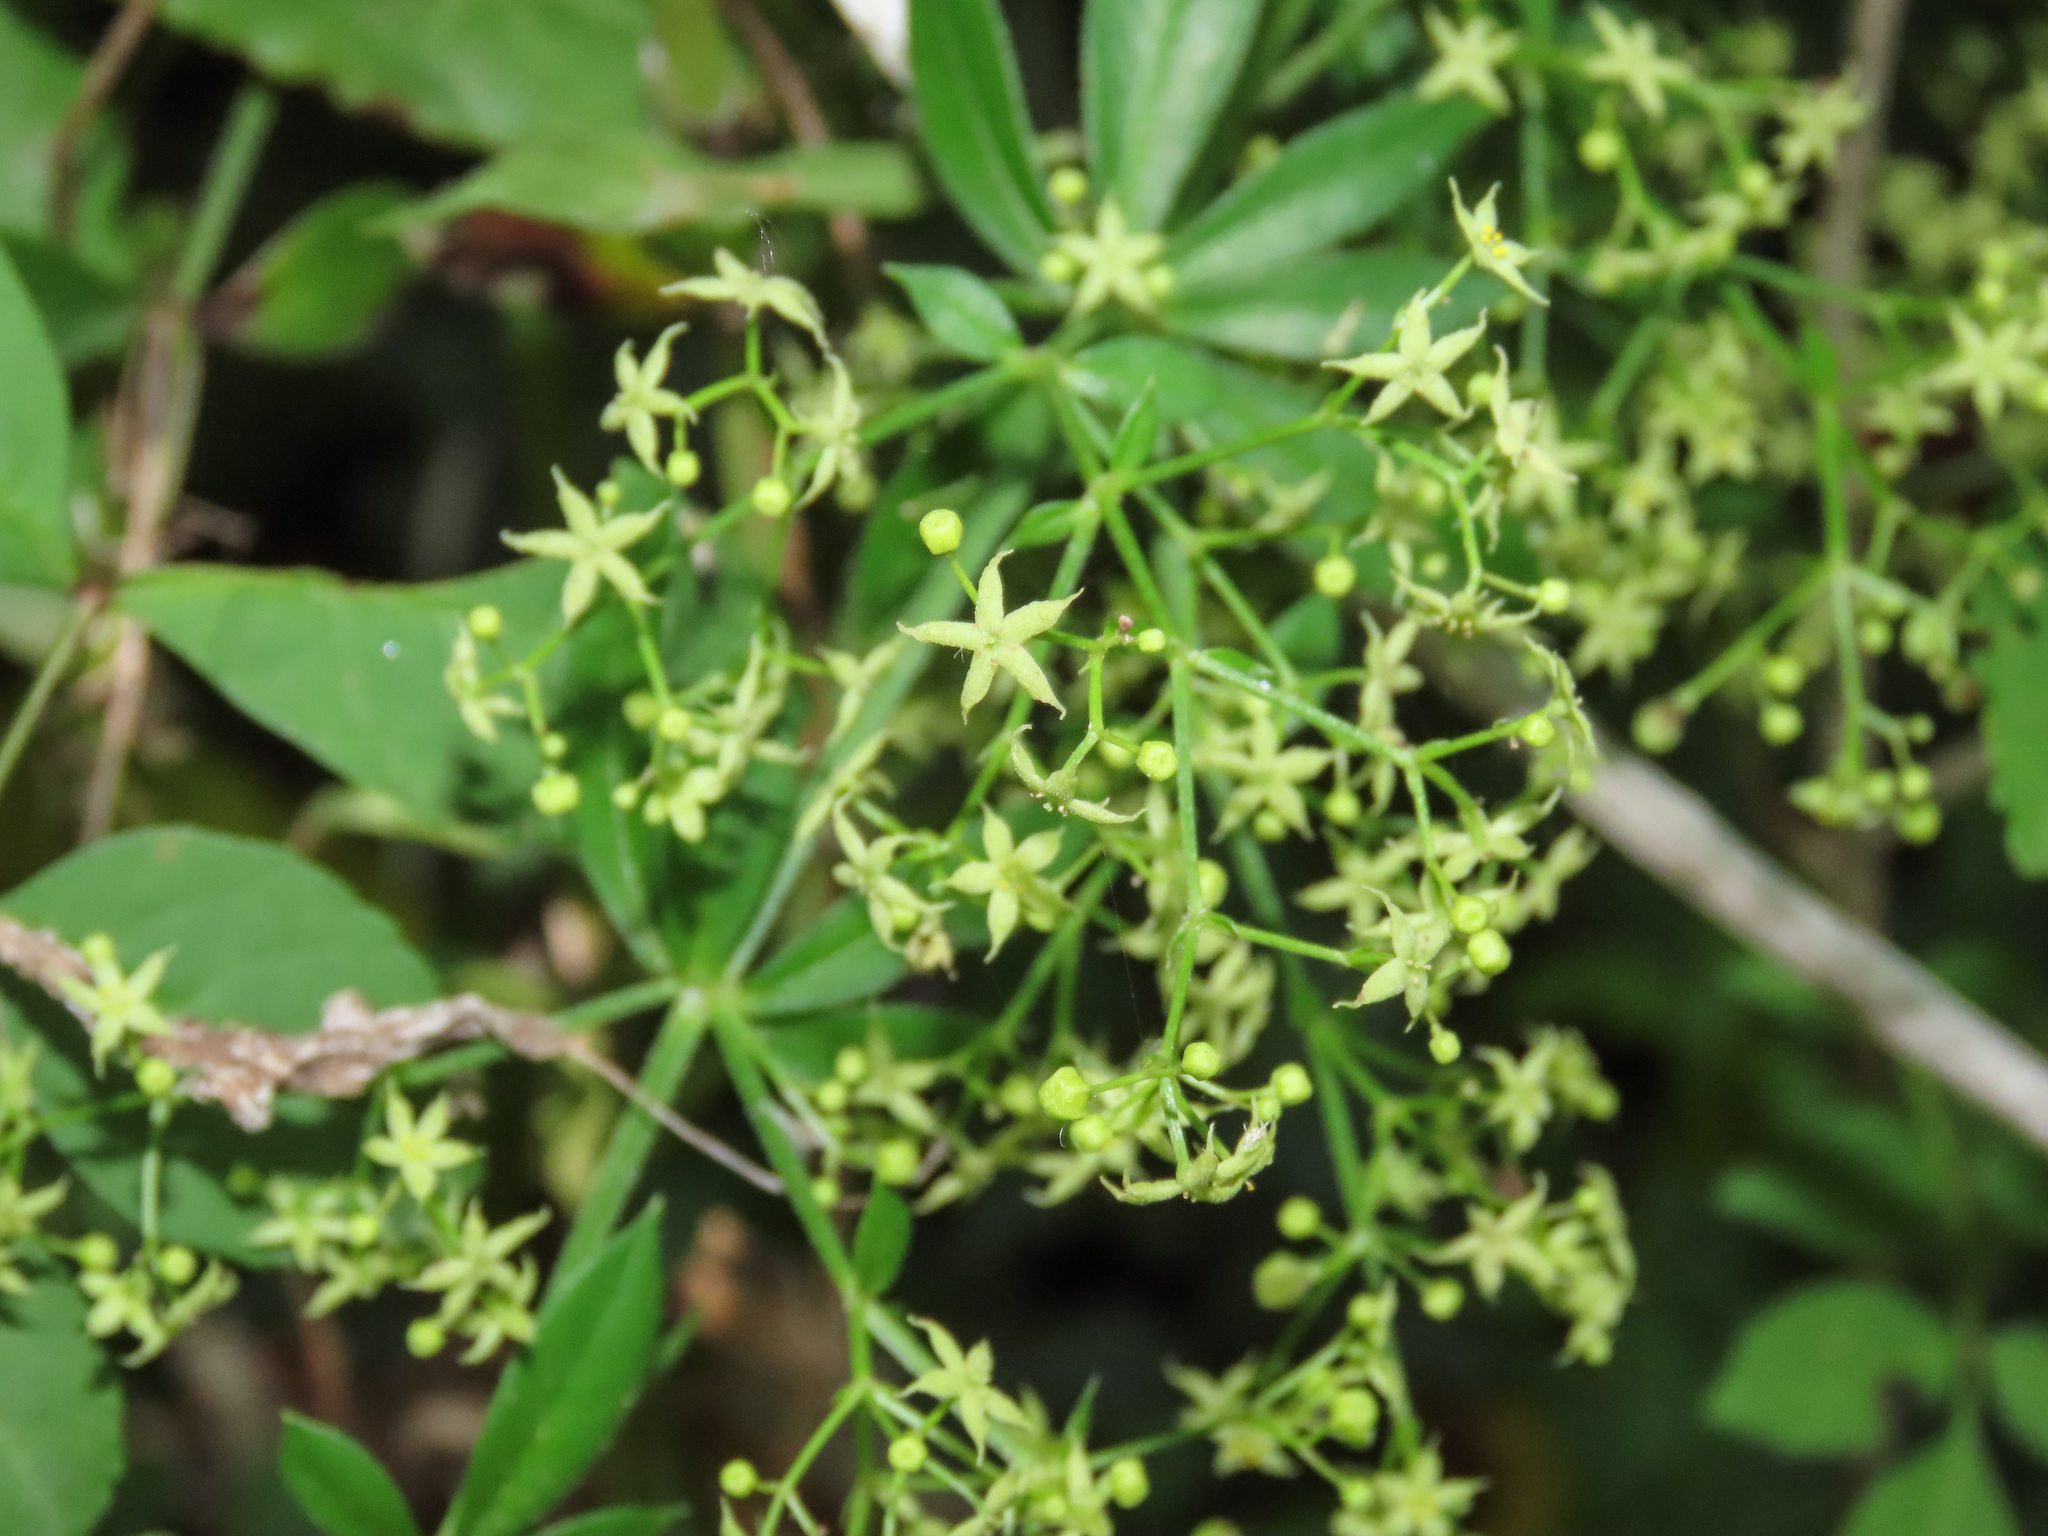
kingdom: Plantae
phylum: Tracheophyta
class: Magnoliopsida
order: Gentianales
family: Rubiaceae
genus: Rubia
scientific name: Rubia peregrina
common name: Wild madder
